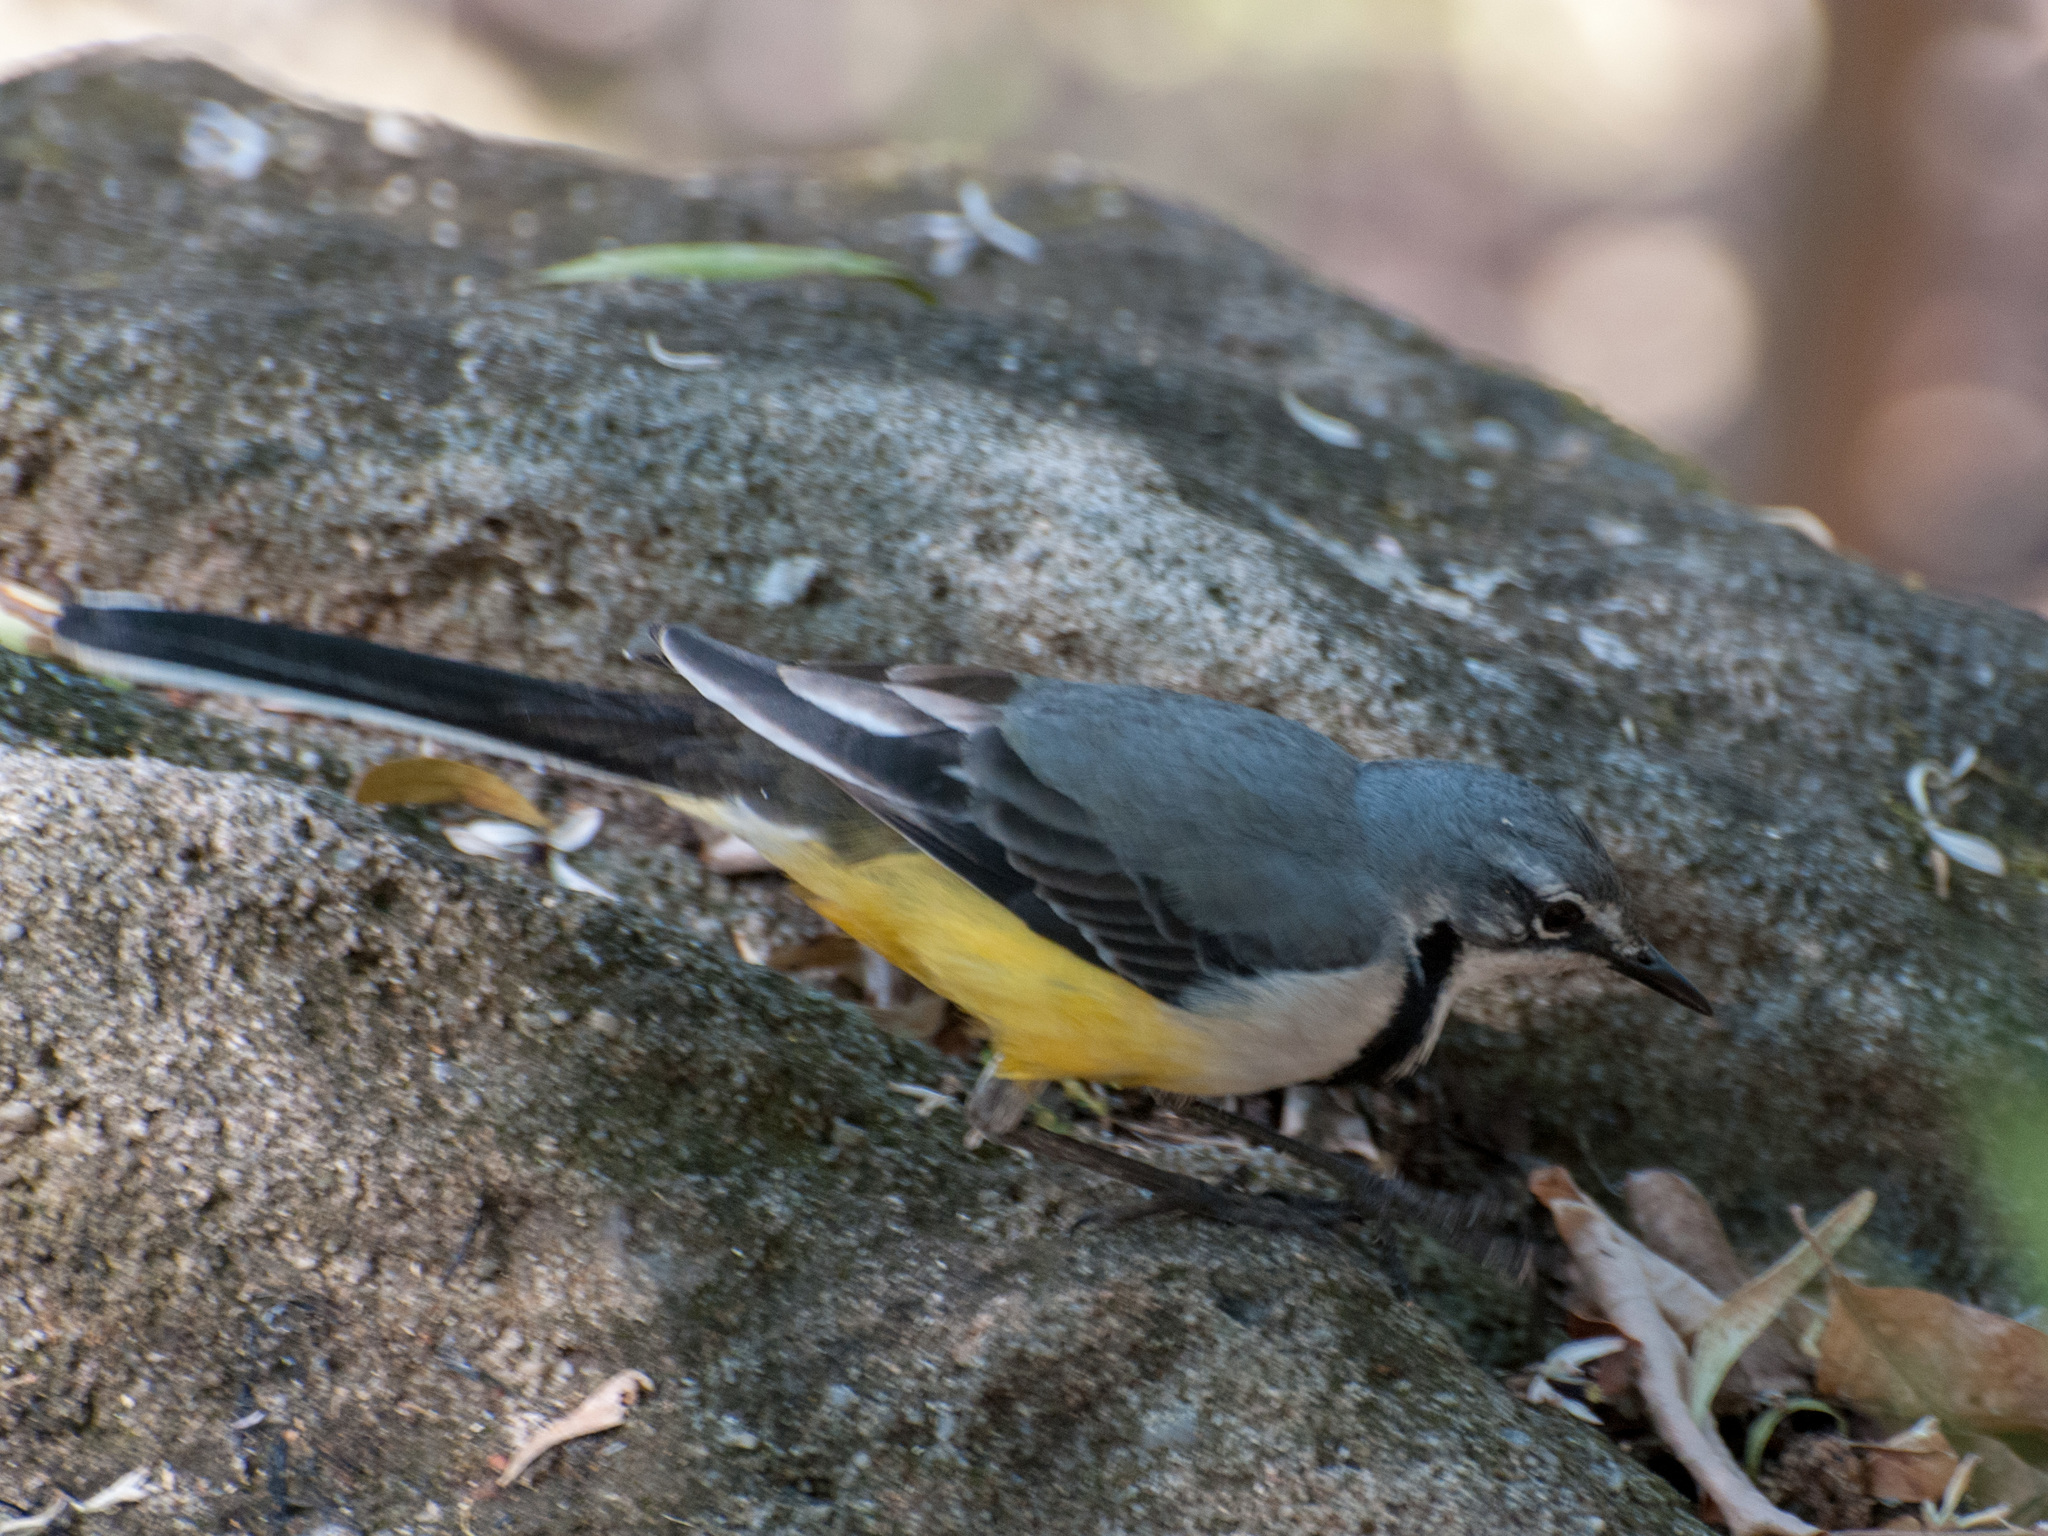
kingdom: Animalia
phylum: Chordata
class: Aves
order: Passeriformes
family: Motacillidae
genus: Motacilla
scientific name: Motacilla flaviventris
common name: Madagascar wagtail
